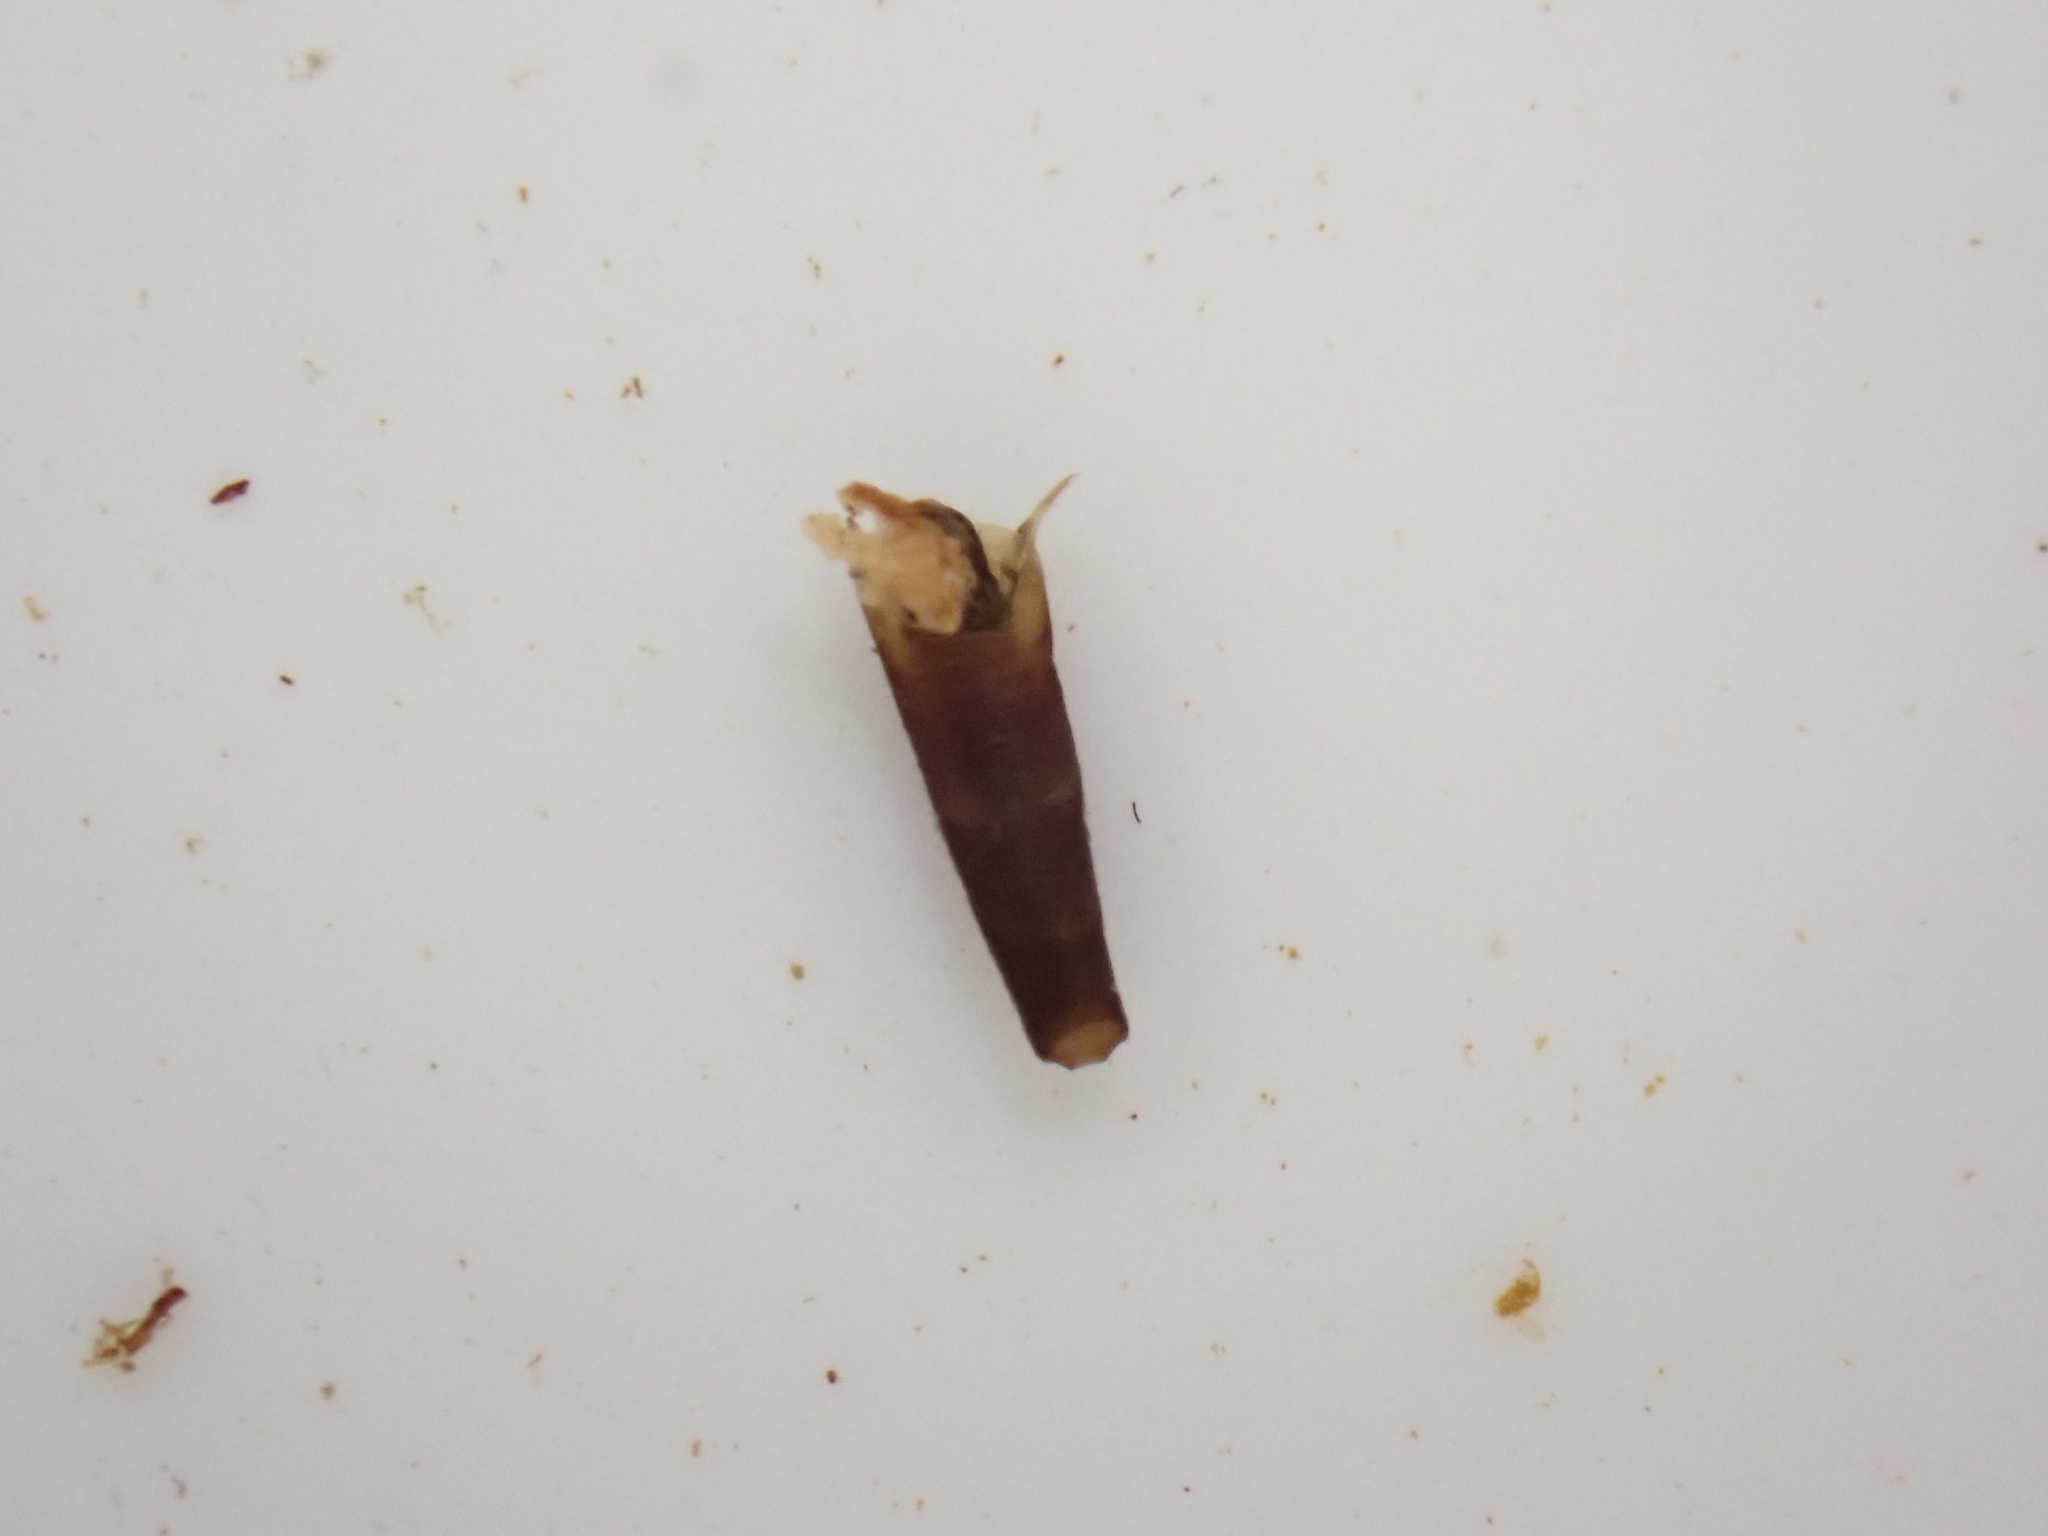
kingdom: Animalia
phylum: Arthropoda
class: Insecta
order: Trichoptera
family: Conoesucidae
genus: Beraeoptera
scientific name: Beraeoptera roria
